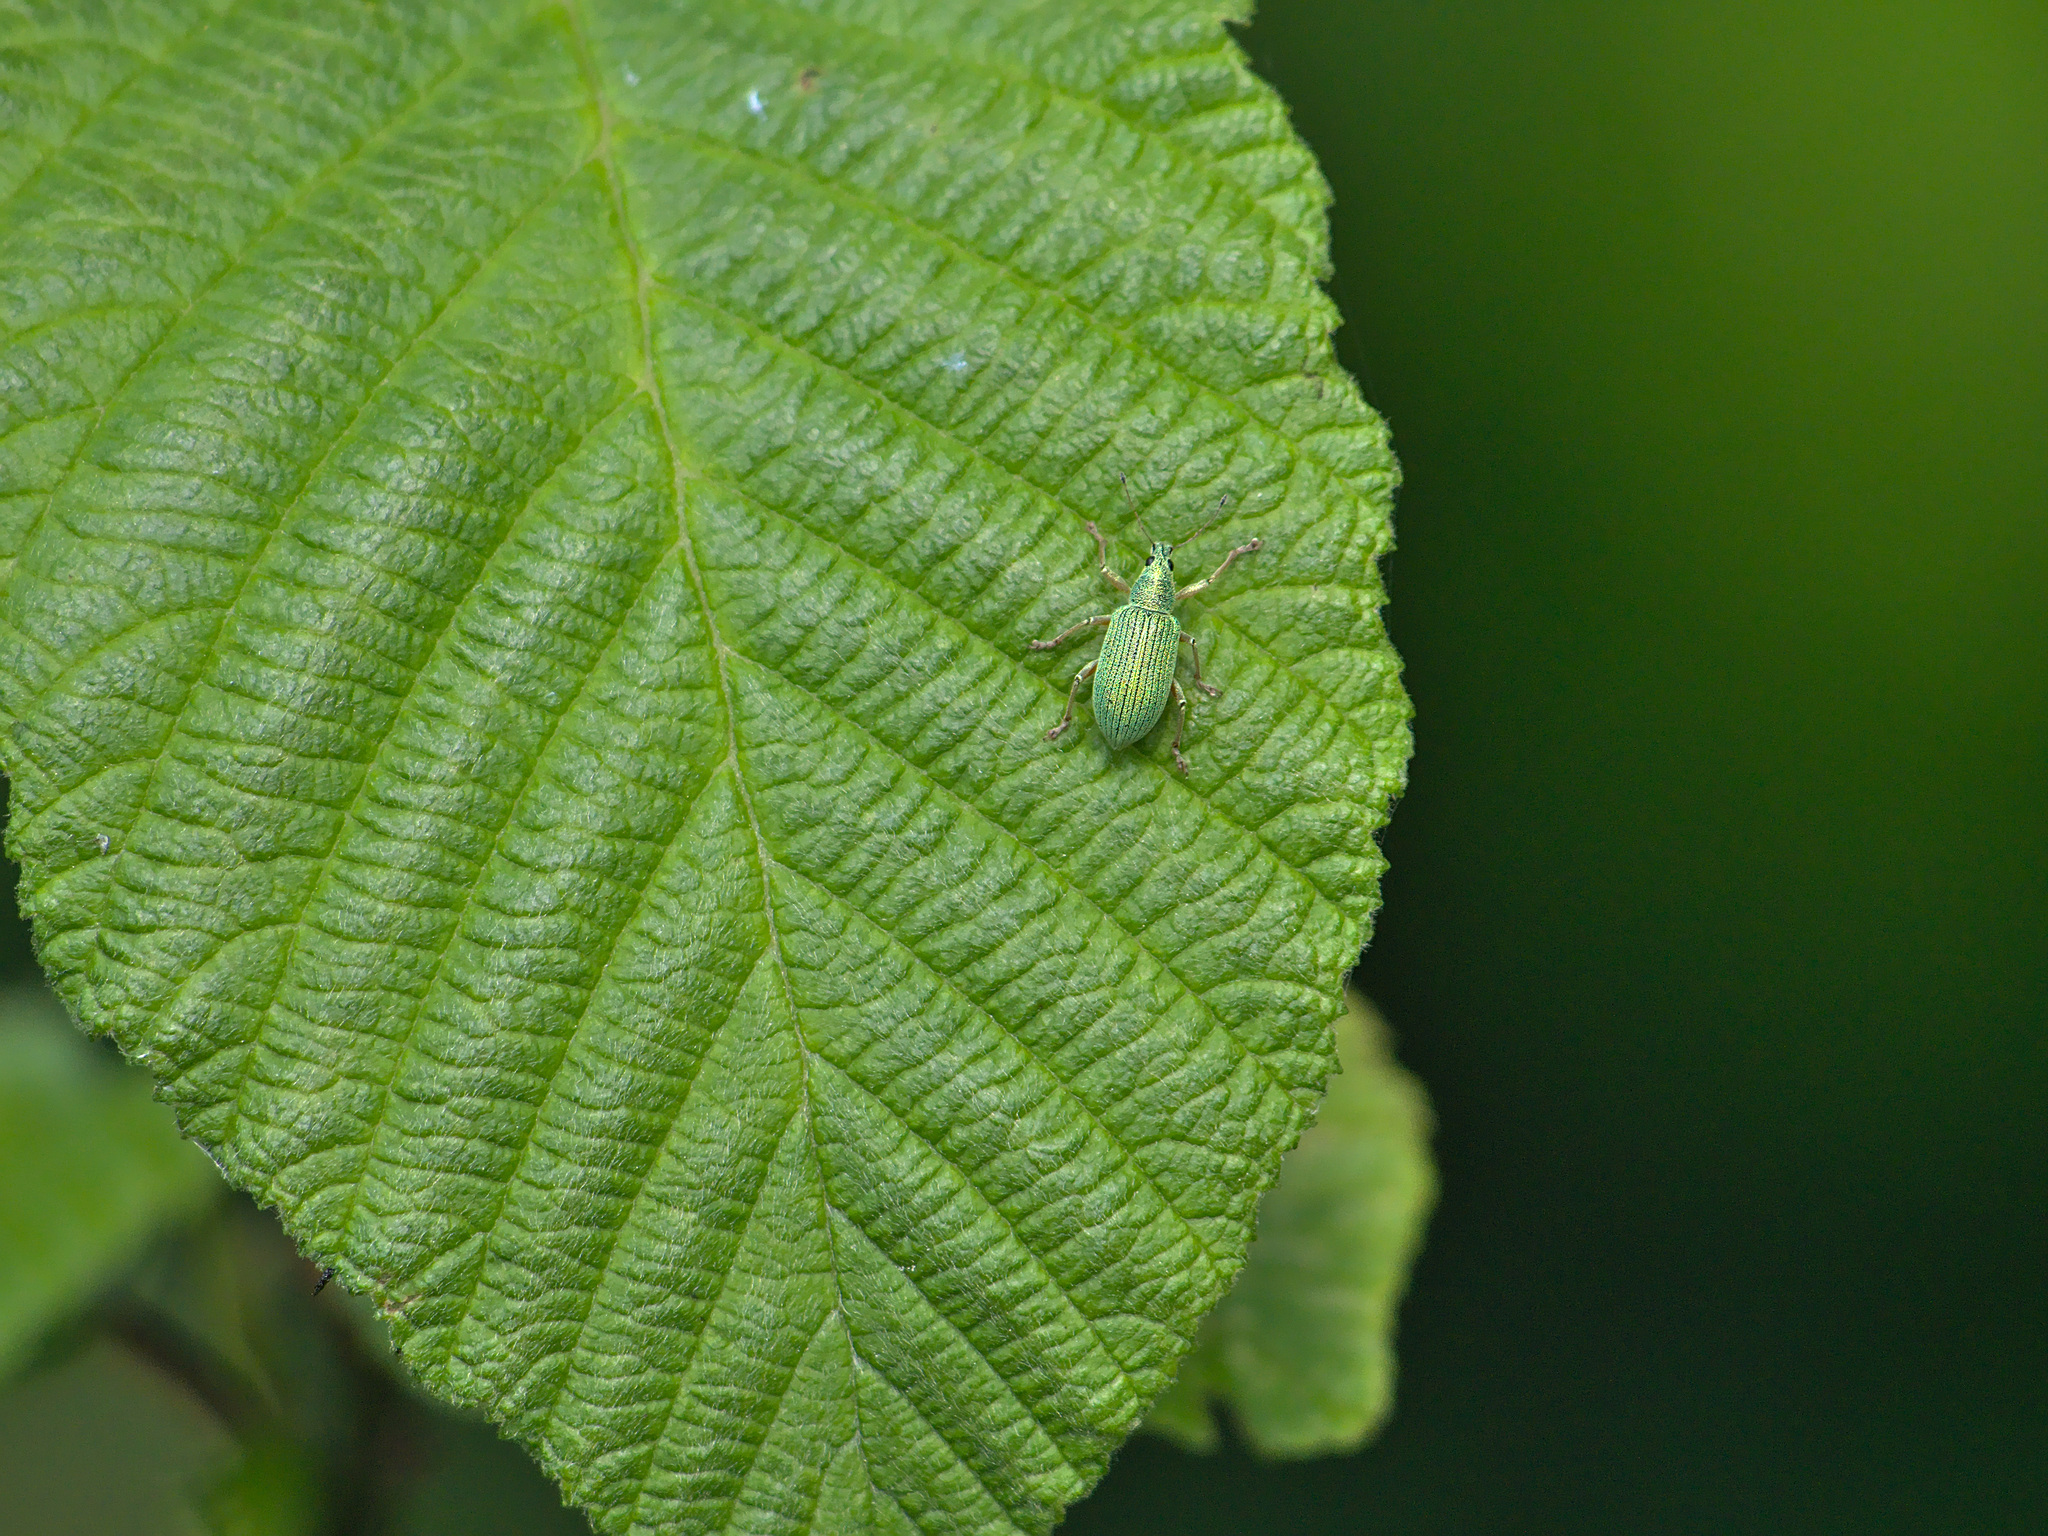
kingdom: Animalia
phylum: Arthropoda
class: Insecta
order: Coleoptera
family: Curculionidae
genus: Polydrusus
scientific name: Polydrusus formosus
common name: Weevil
